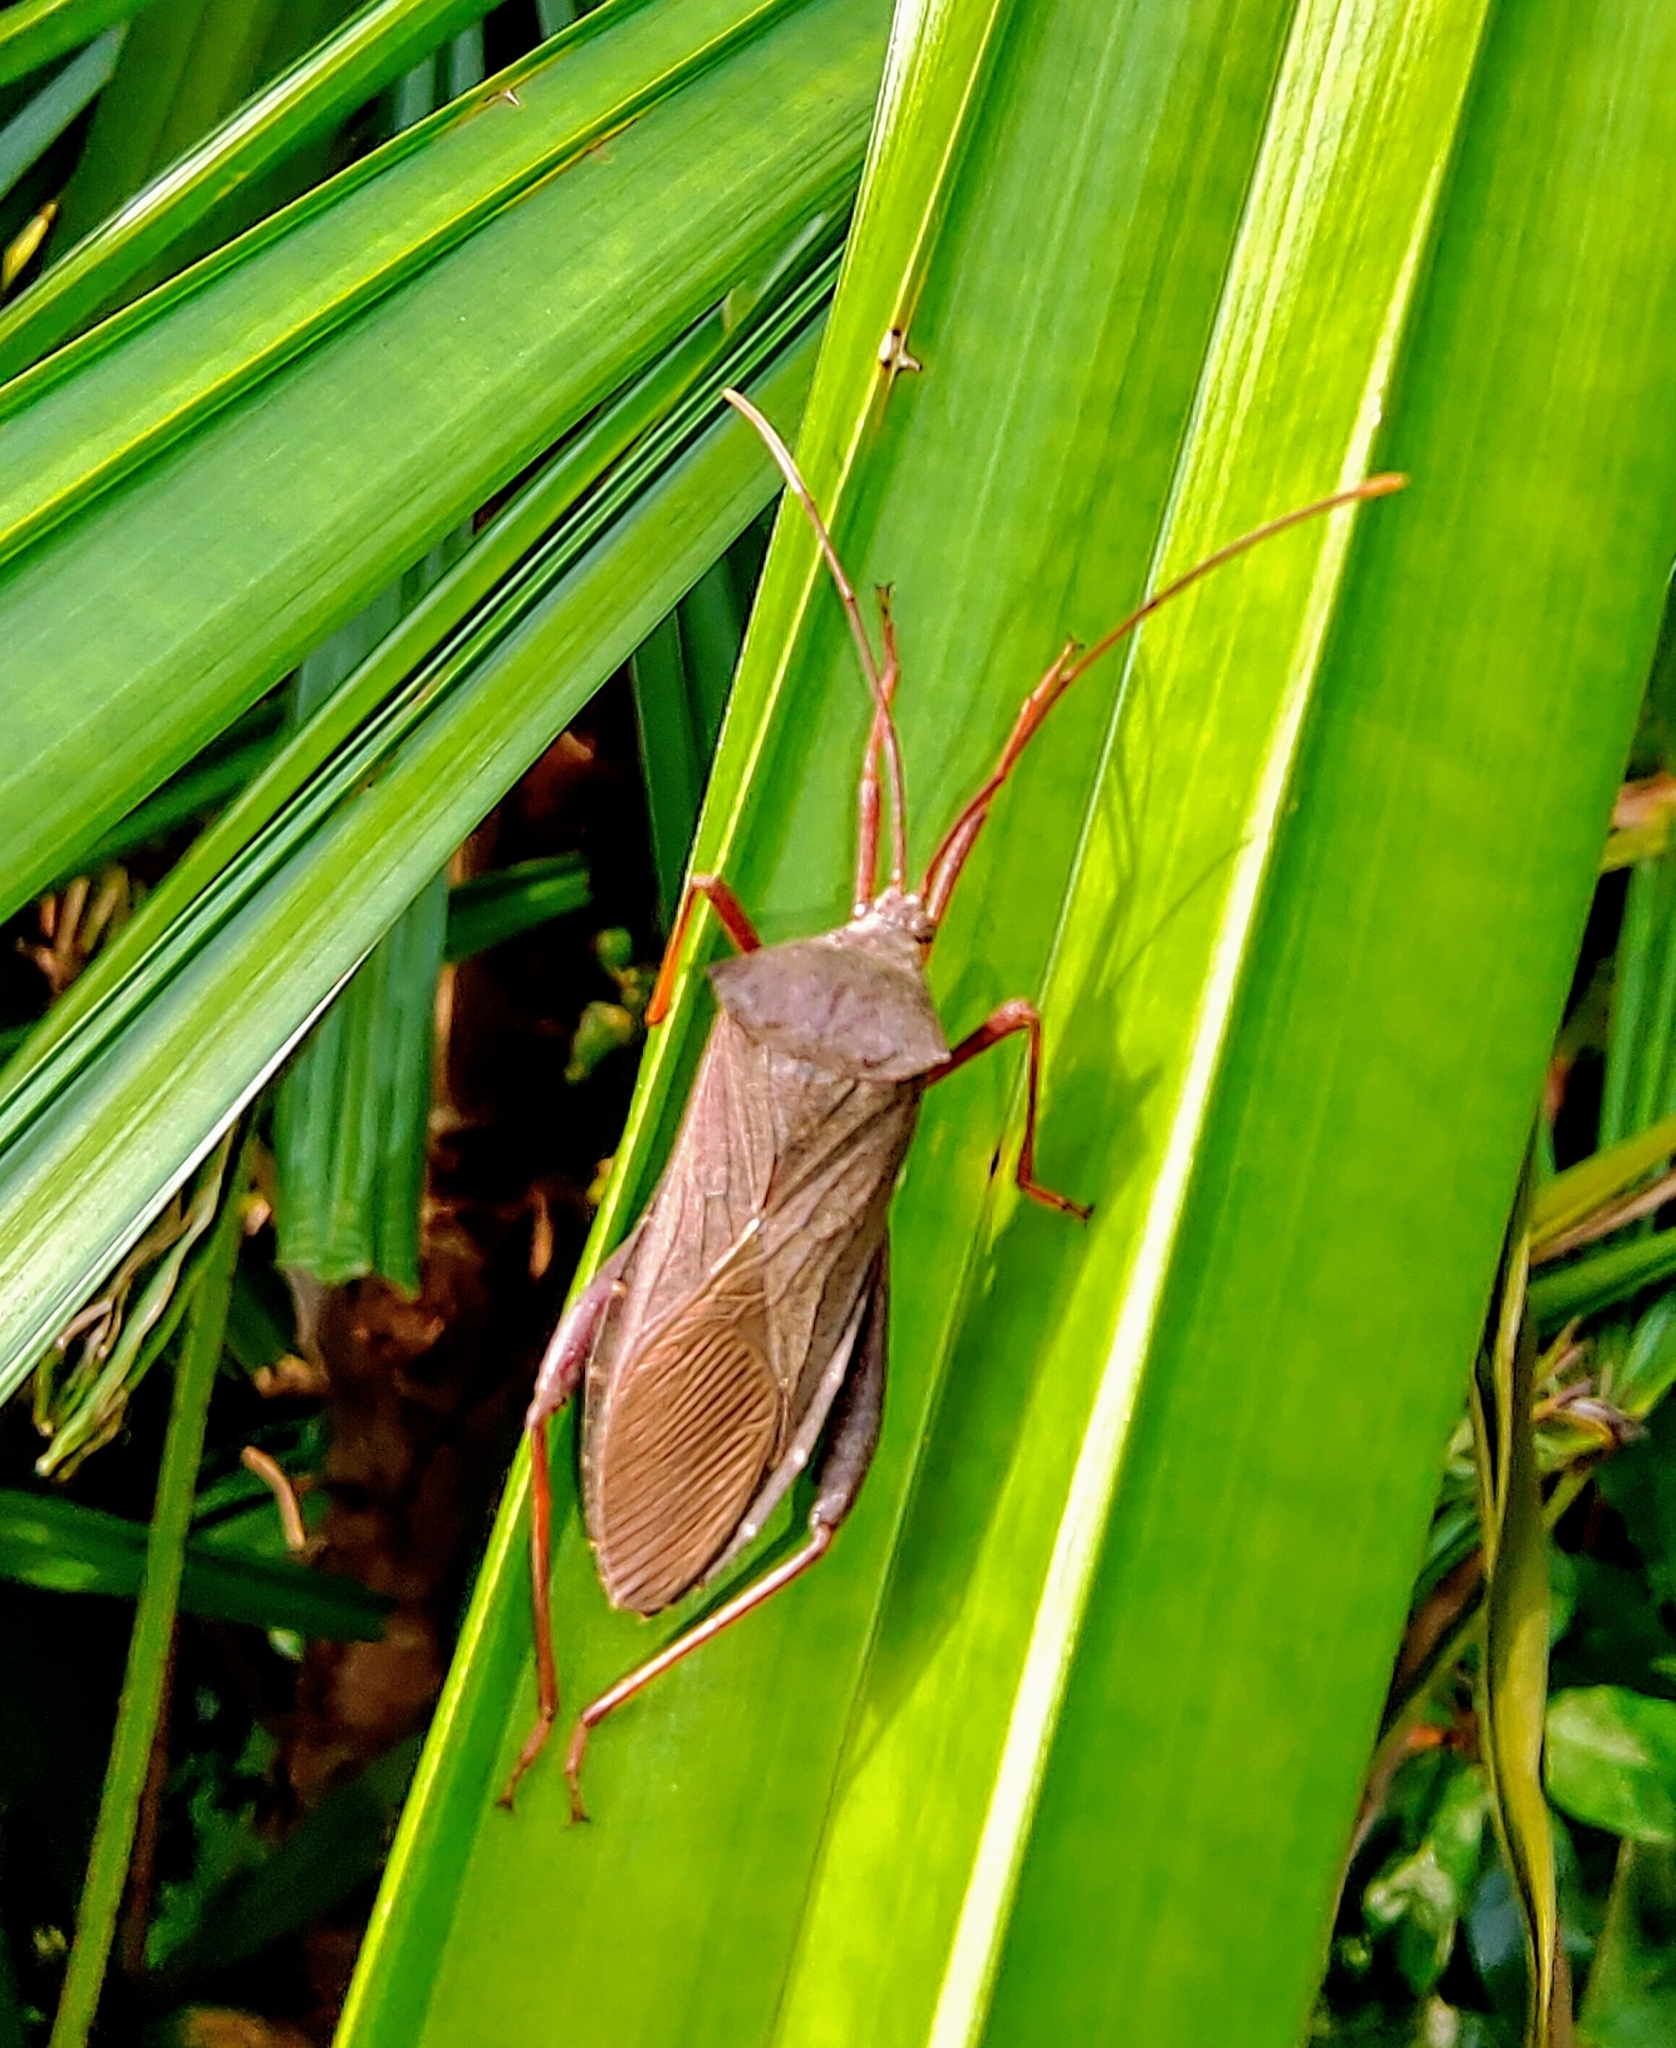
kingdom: Animalia
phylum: Arthropoda
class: Insecta
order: Hemiptera
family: Coreidae
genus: Mictis
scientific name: Mictis longicornis
